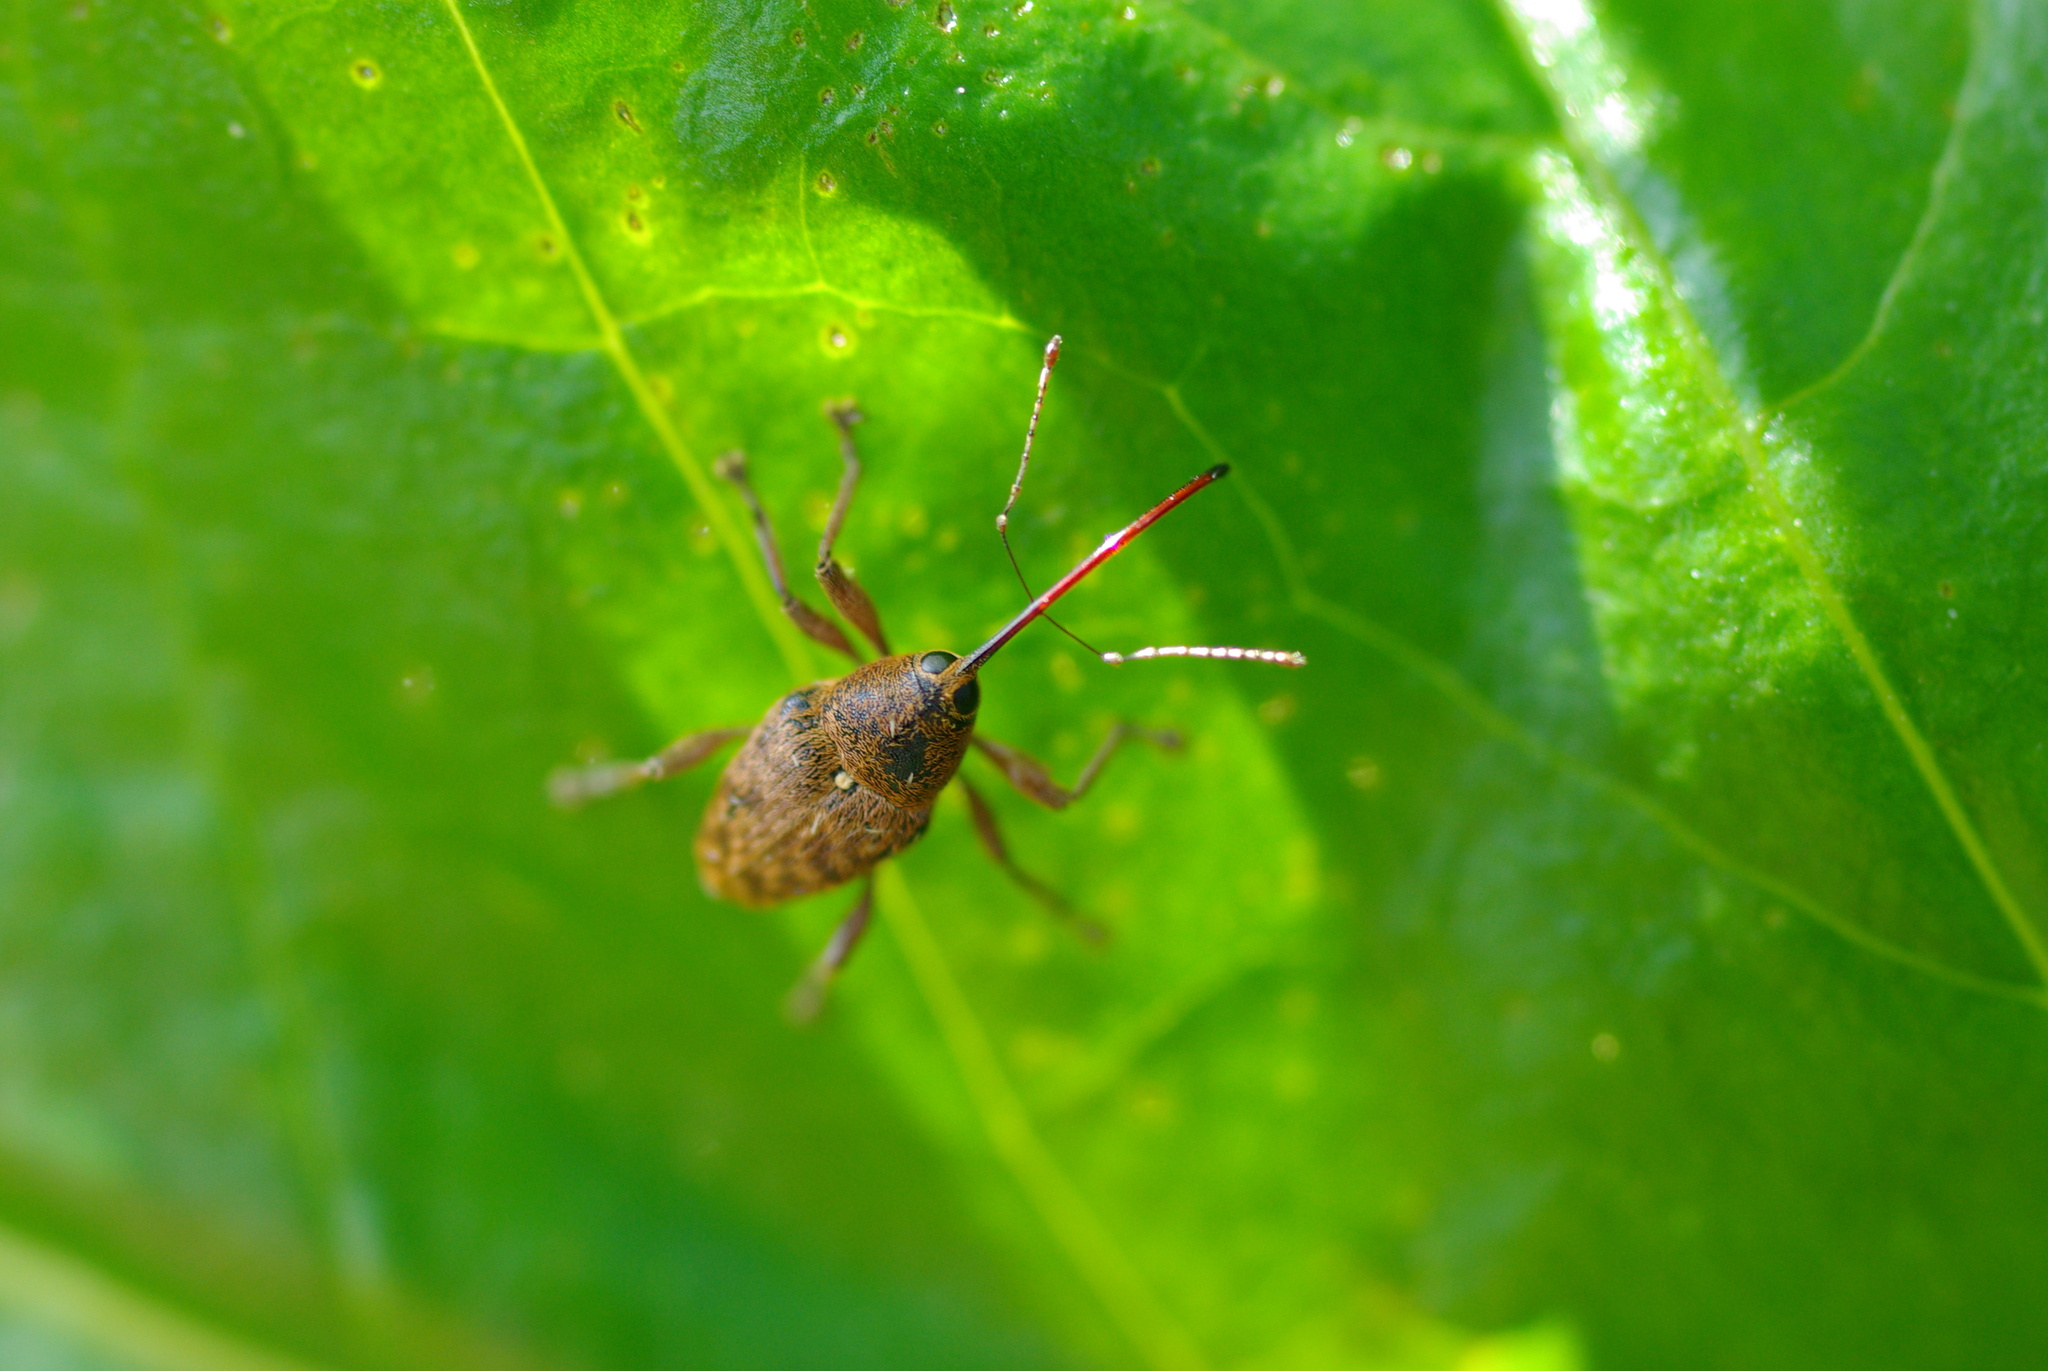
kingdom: Animalia
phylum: Arthropoda
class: Insecta
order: Coleoptera
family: Curculionidae
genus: Curculio
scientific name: Curculio glandium
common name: Acorn weevil
